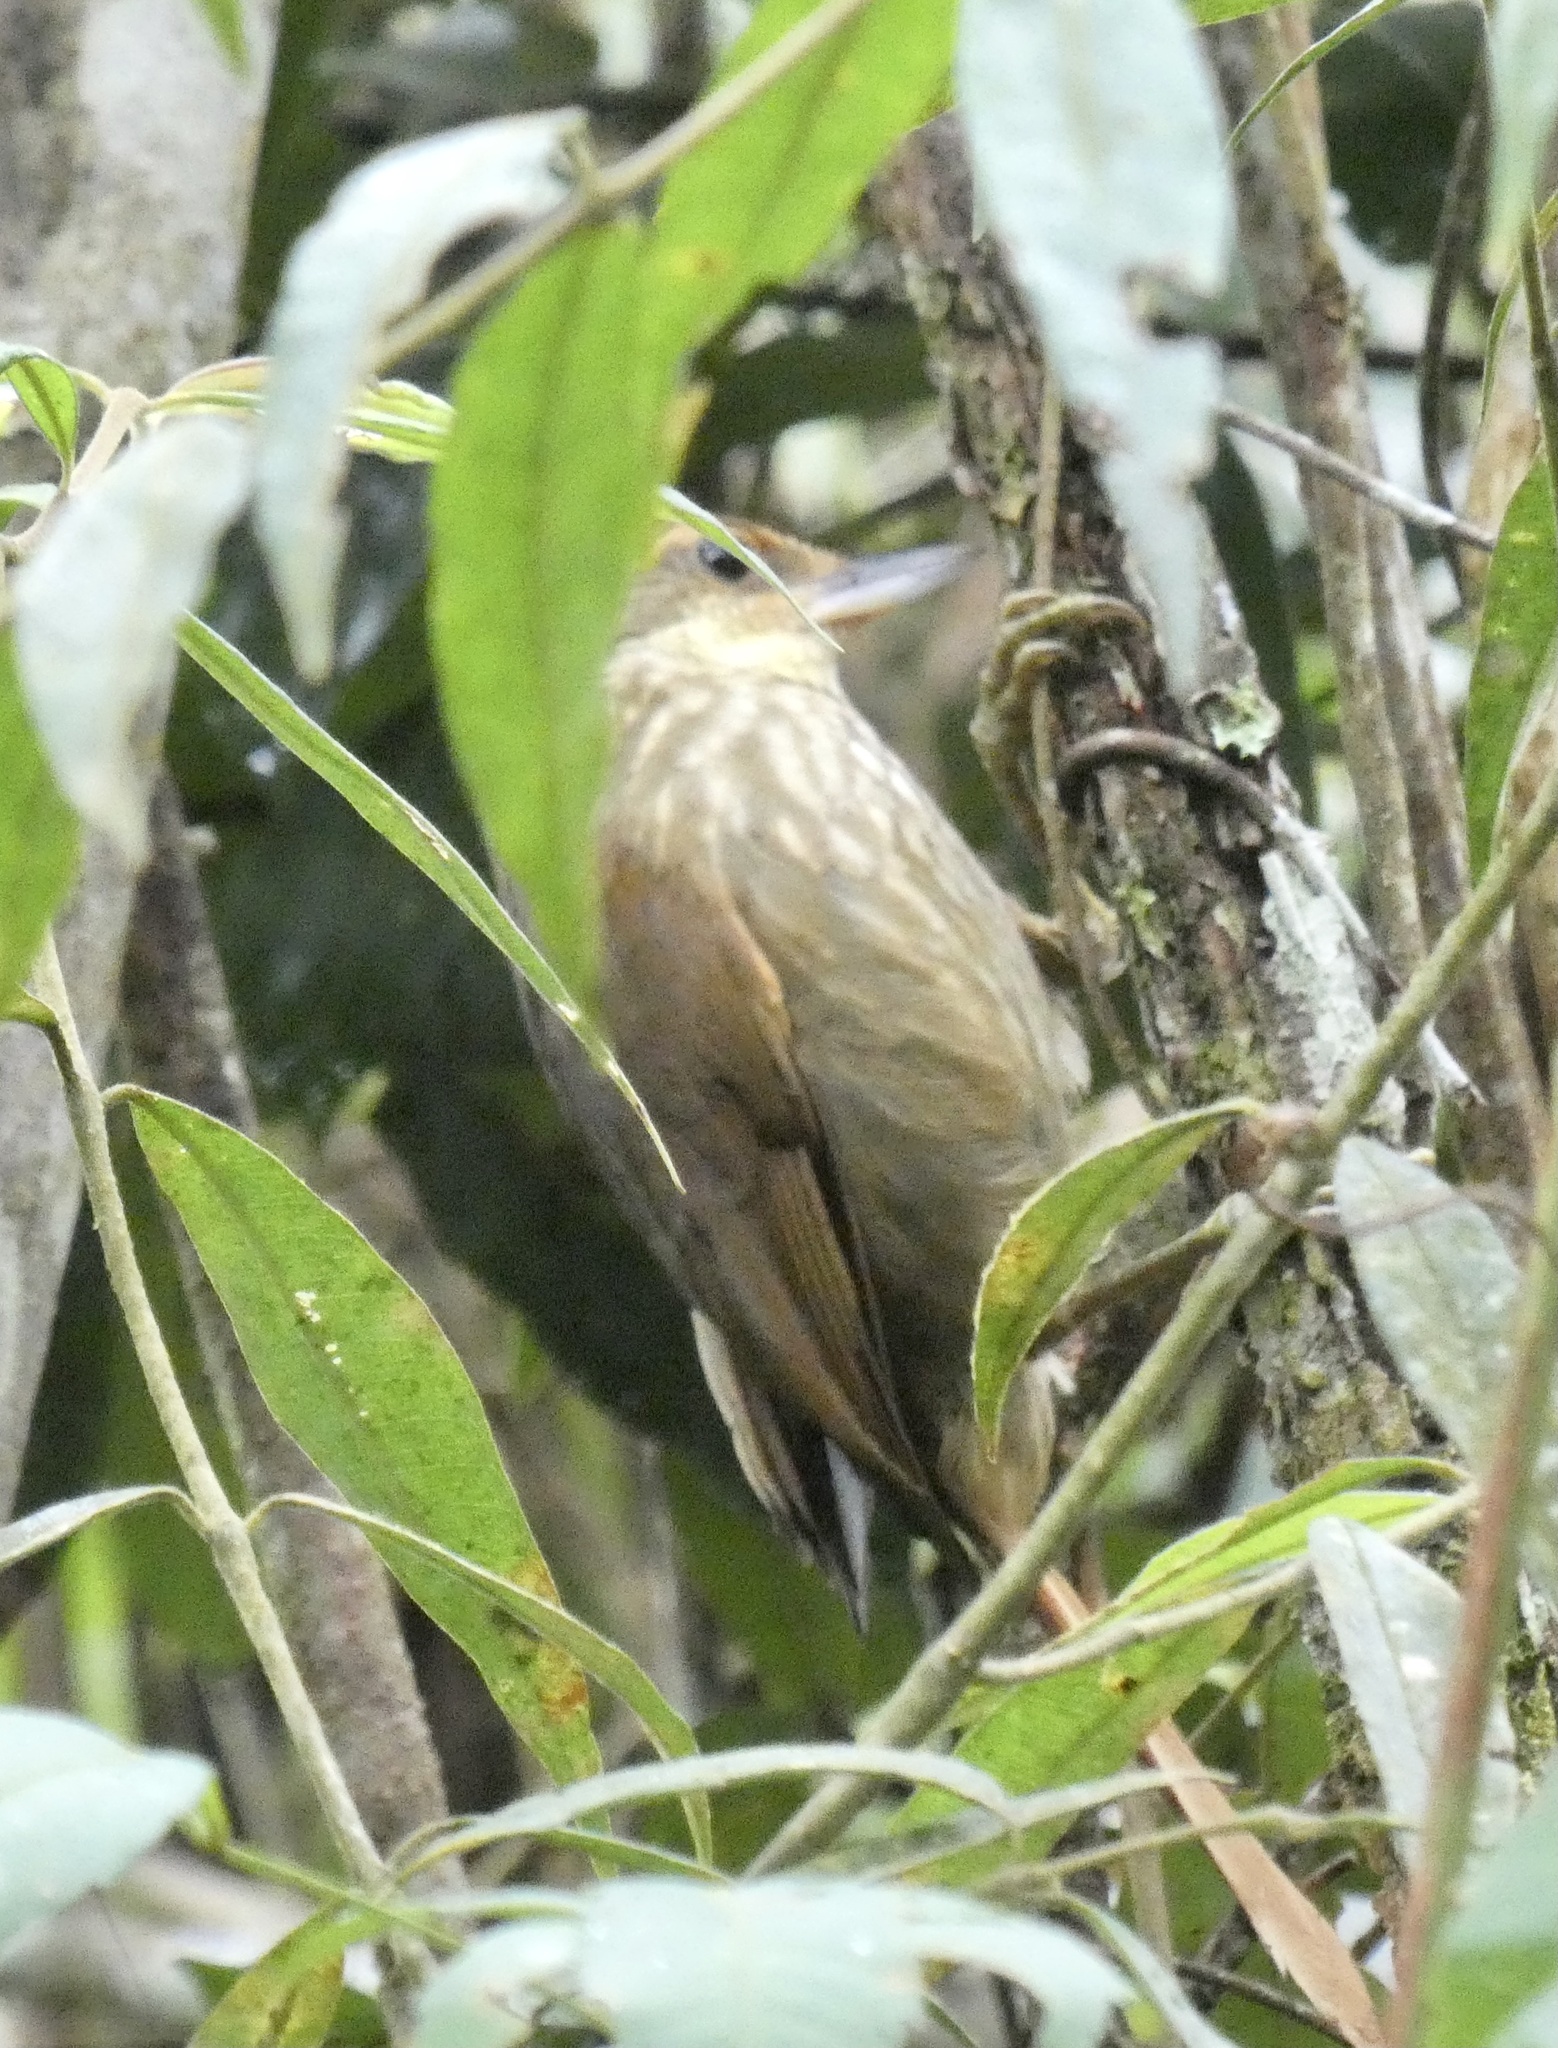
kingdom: Animalia
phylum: Chordata
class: Aves
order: Passeriformes
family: Furnariidae
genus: Syndactyla
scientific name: Syndactyla rufosuperciliata
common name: Buff-browed foliage-gleaner
